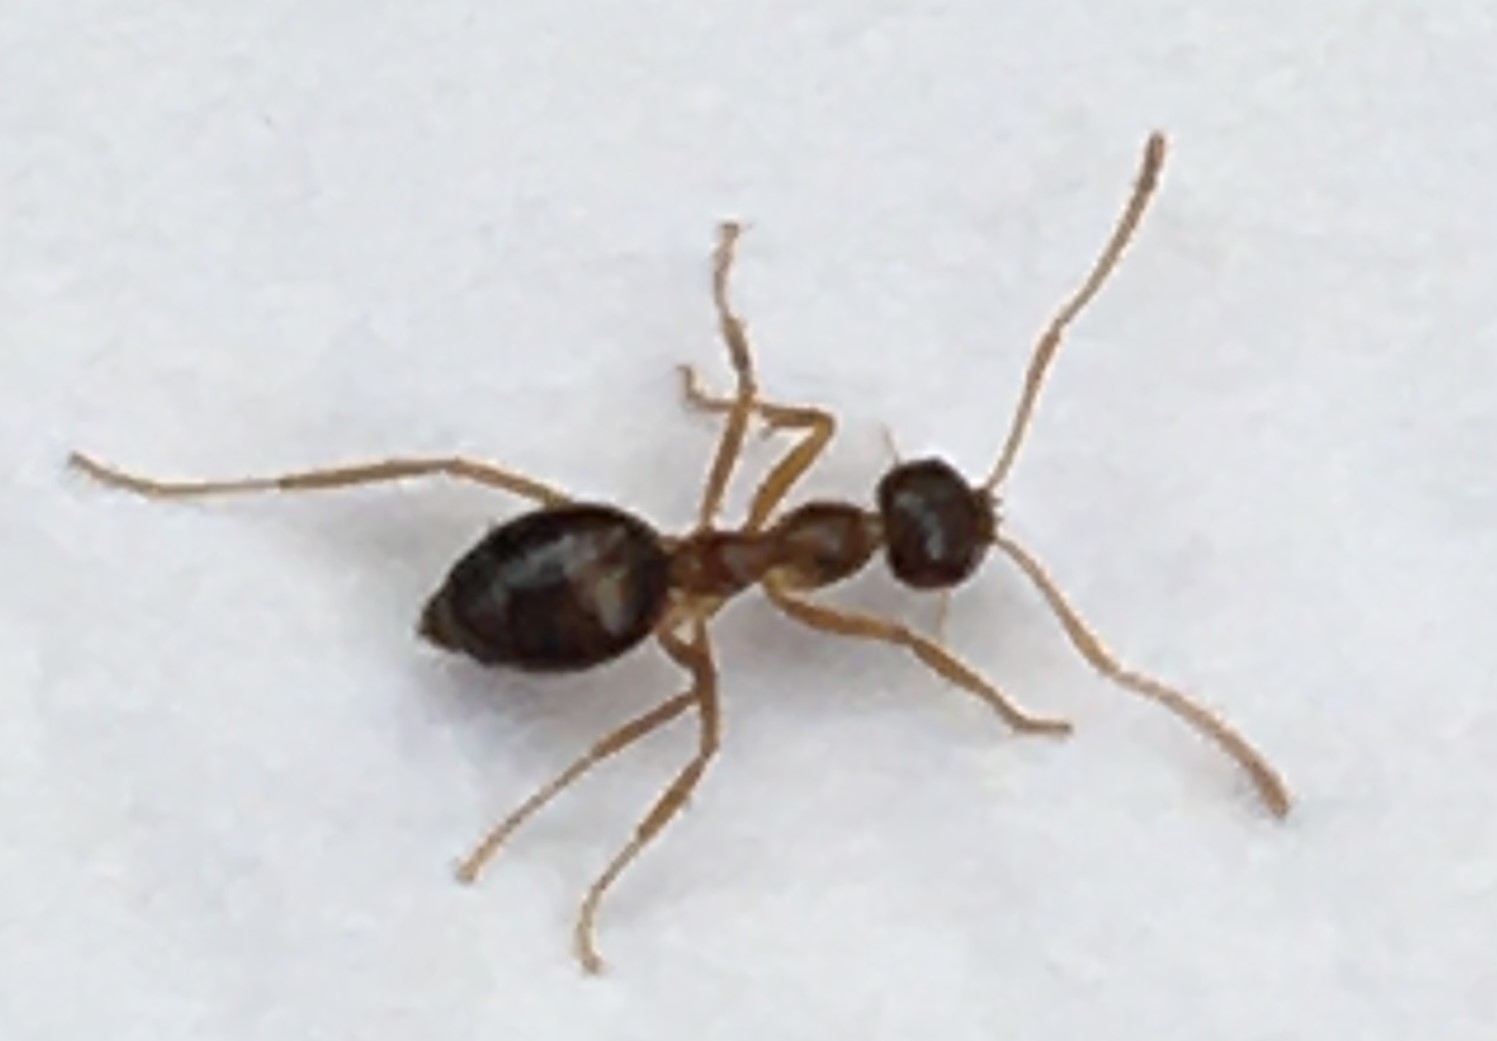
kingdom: Animalia
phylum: Arthropoda
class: Insecta
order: Hymenoptera
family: Formicidae
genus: Prenolepis
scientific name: Prenolepis imparis
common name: Small honey ant
